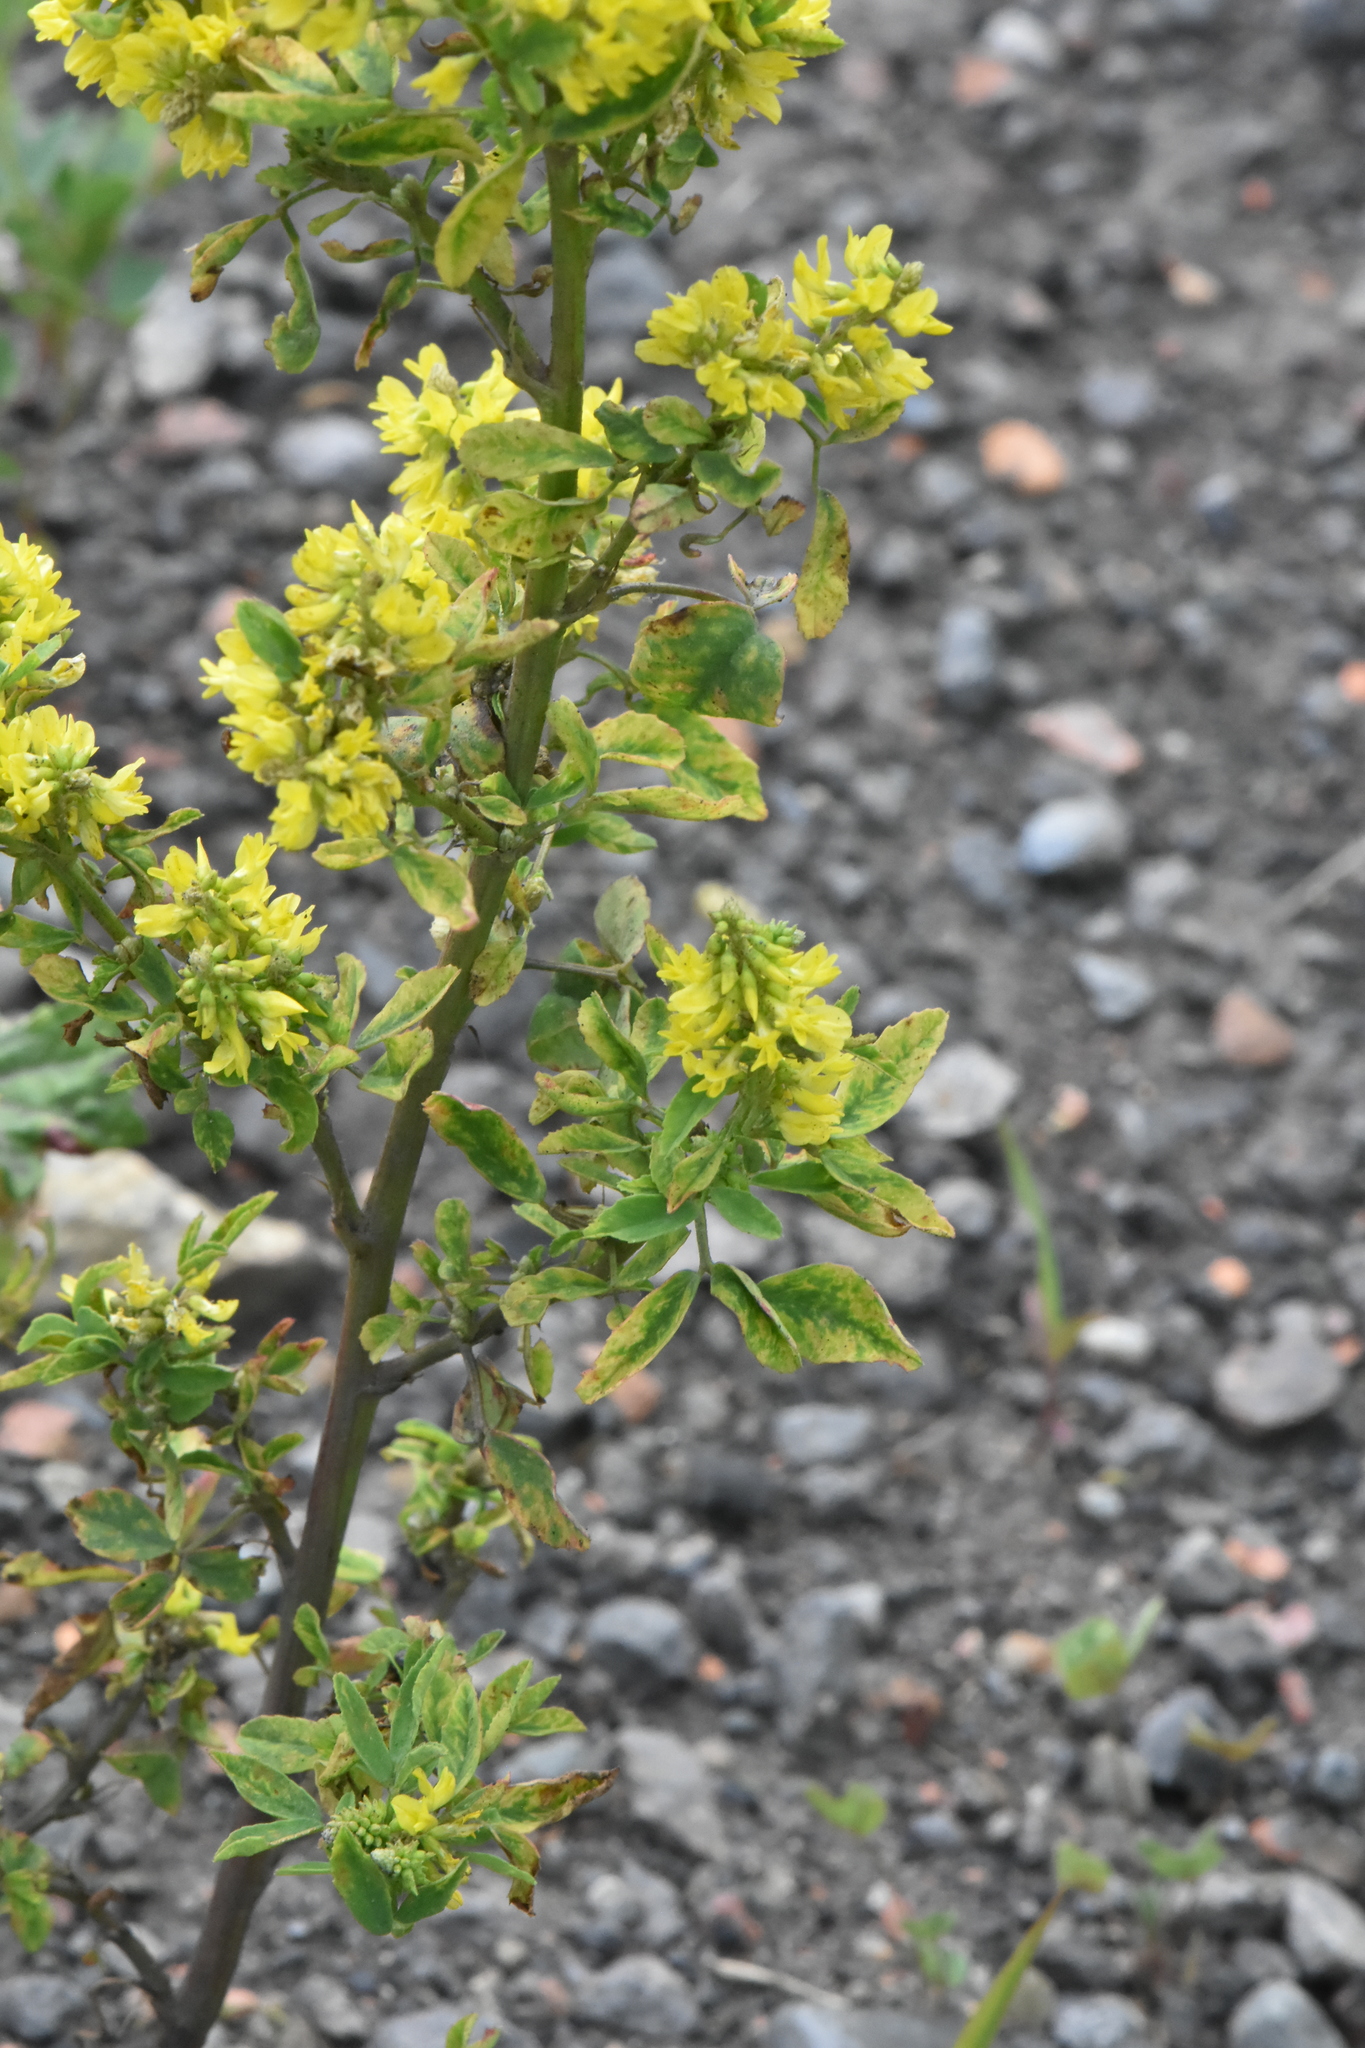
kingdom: Plantae
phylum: Tracheophyta
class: Magnoliopsida
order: Fabales
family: Fabaceae
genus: Melilotus
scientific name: Melilotus officinalis
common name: Sweetclover
